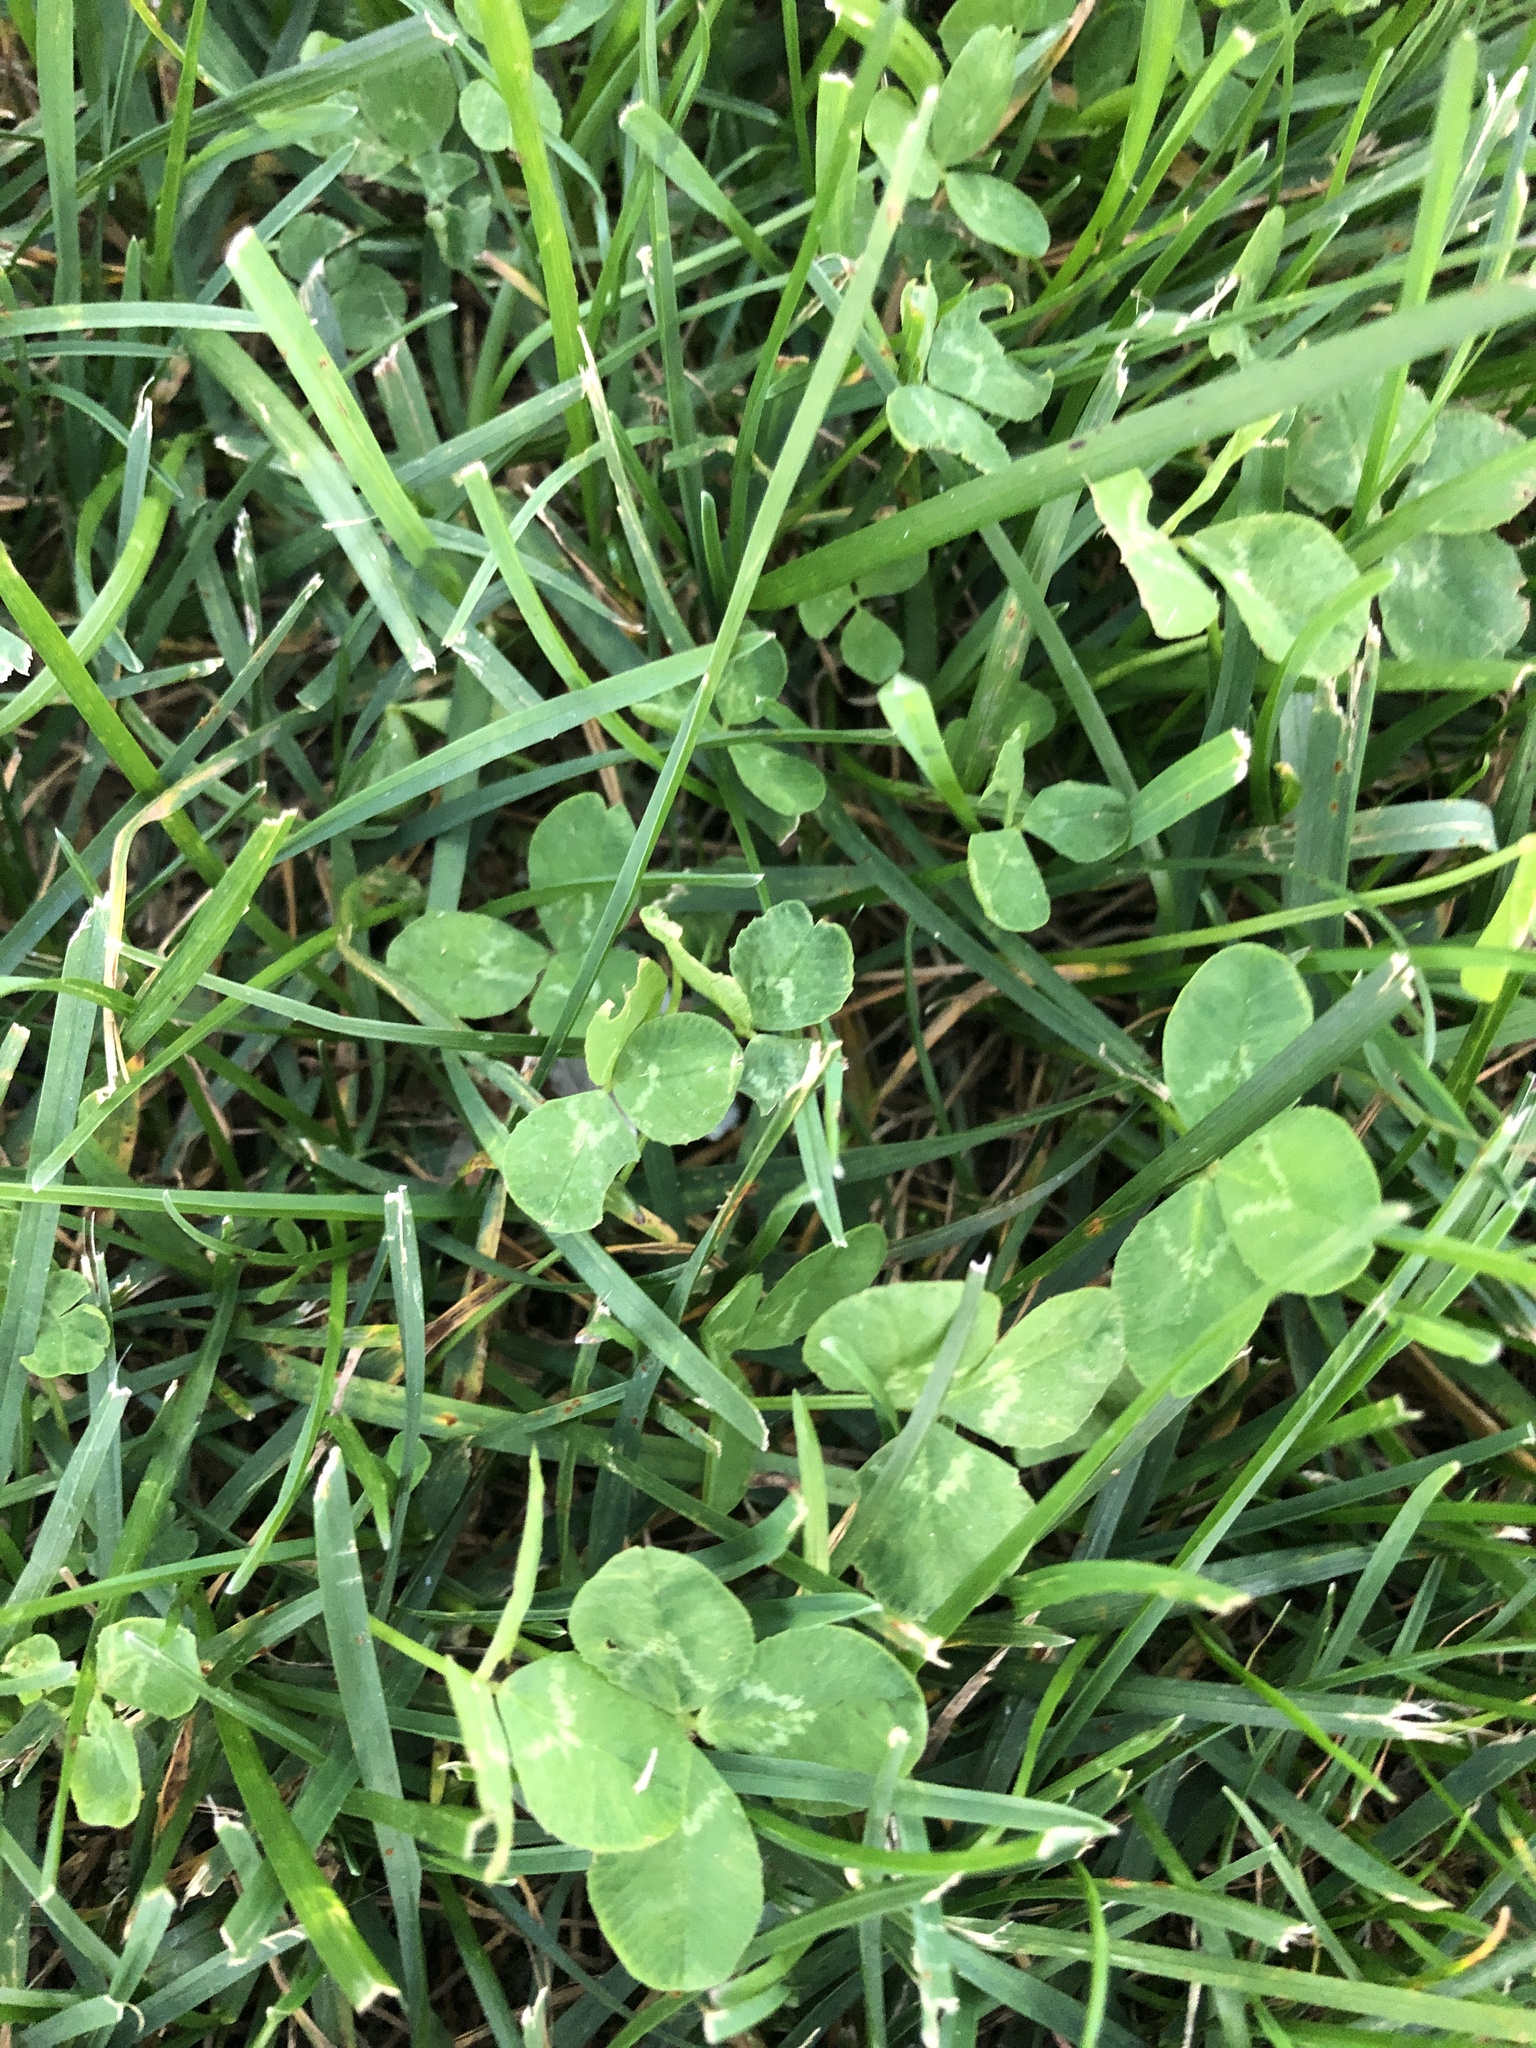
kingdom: Plantae
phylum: Tracheophyta
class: Magnoliopsida
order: Fabales
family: Fabaceae
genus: Trifolium
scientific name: Trifolium repens
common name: White clover
